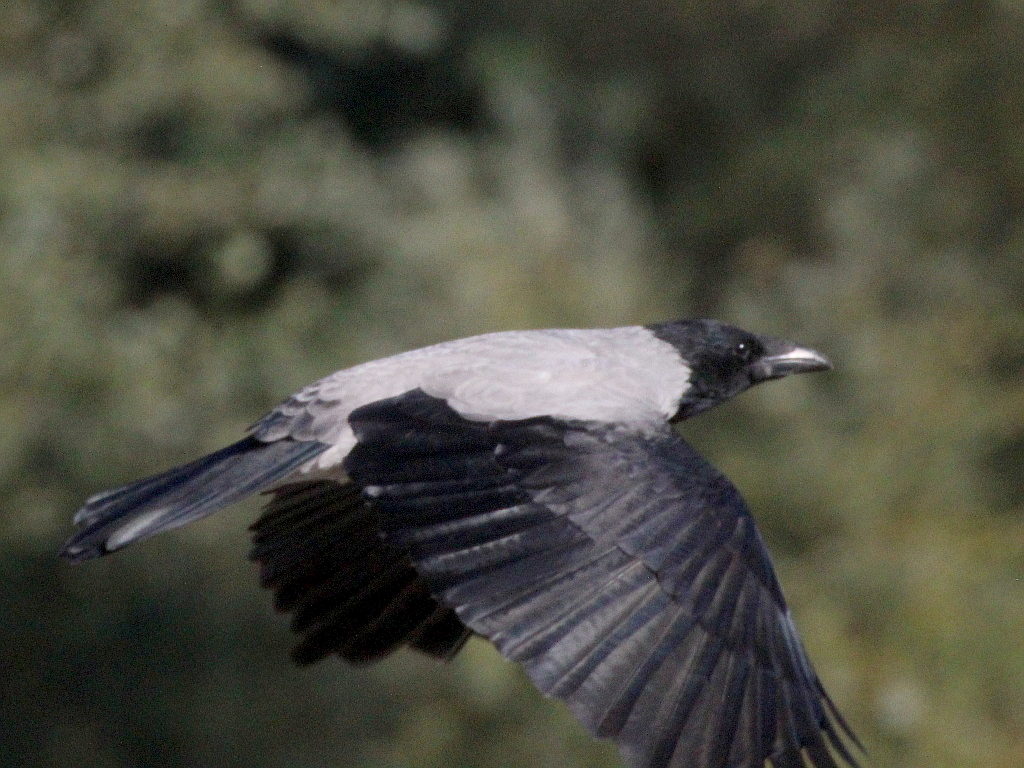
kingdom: Animalia
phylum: Chordata
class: Aves
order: Passeriformes
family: Corvidae
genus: Corvus
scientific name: Corvus cornix
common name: Hooded crow
